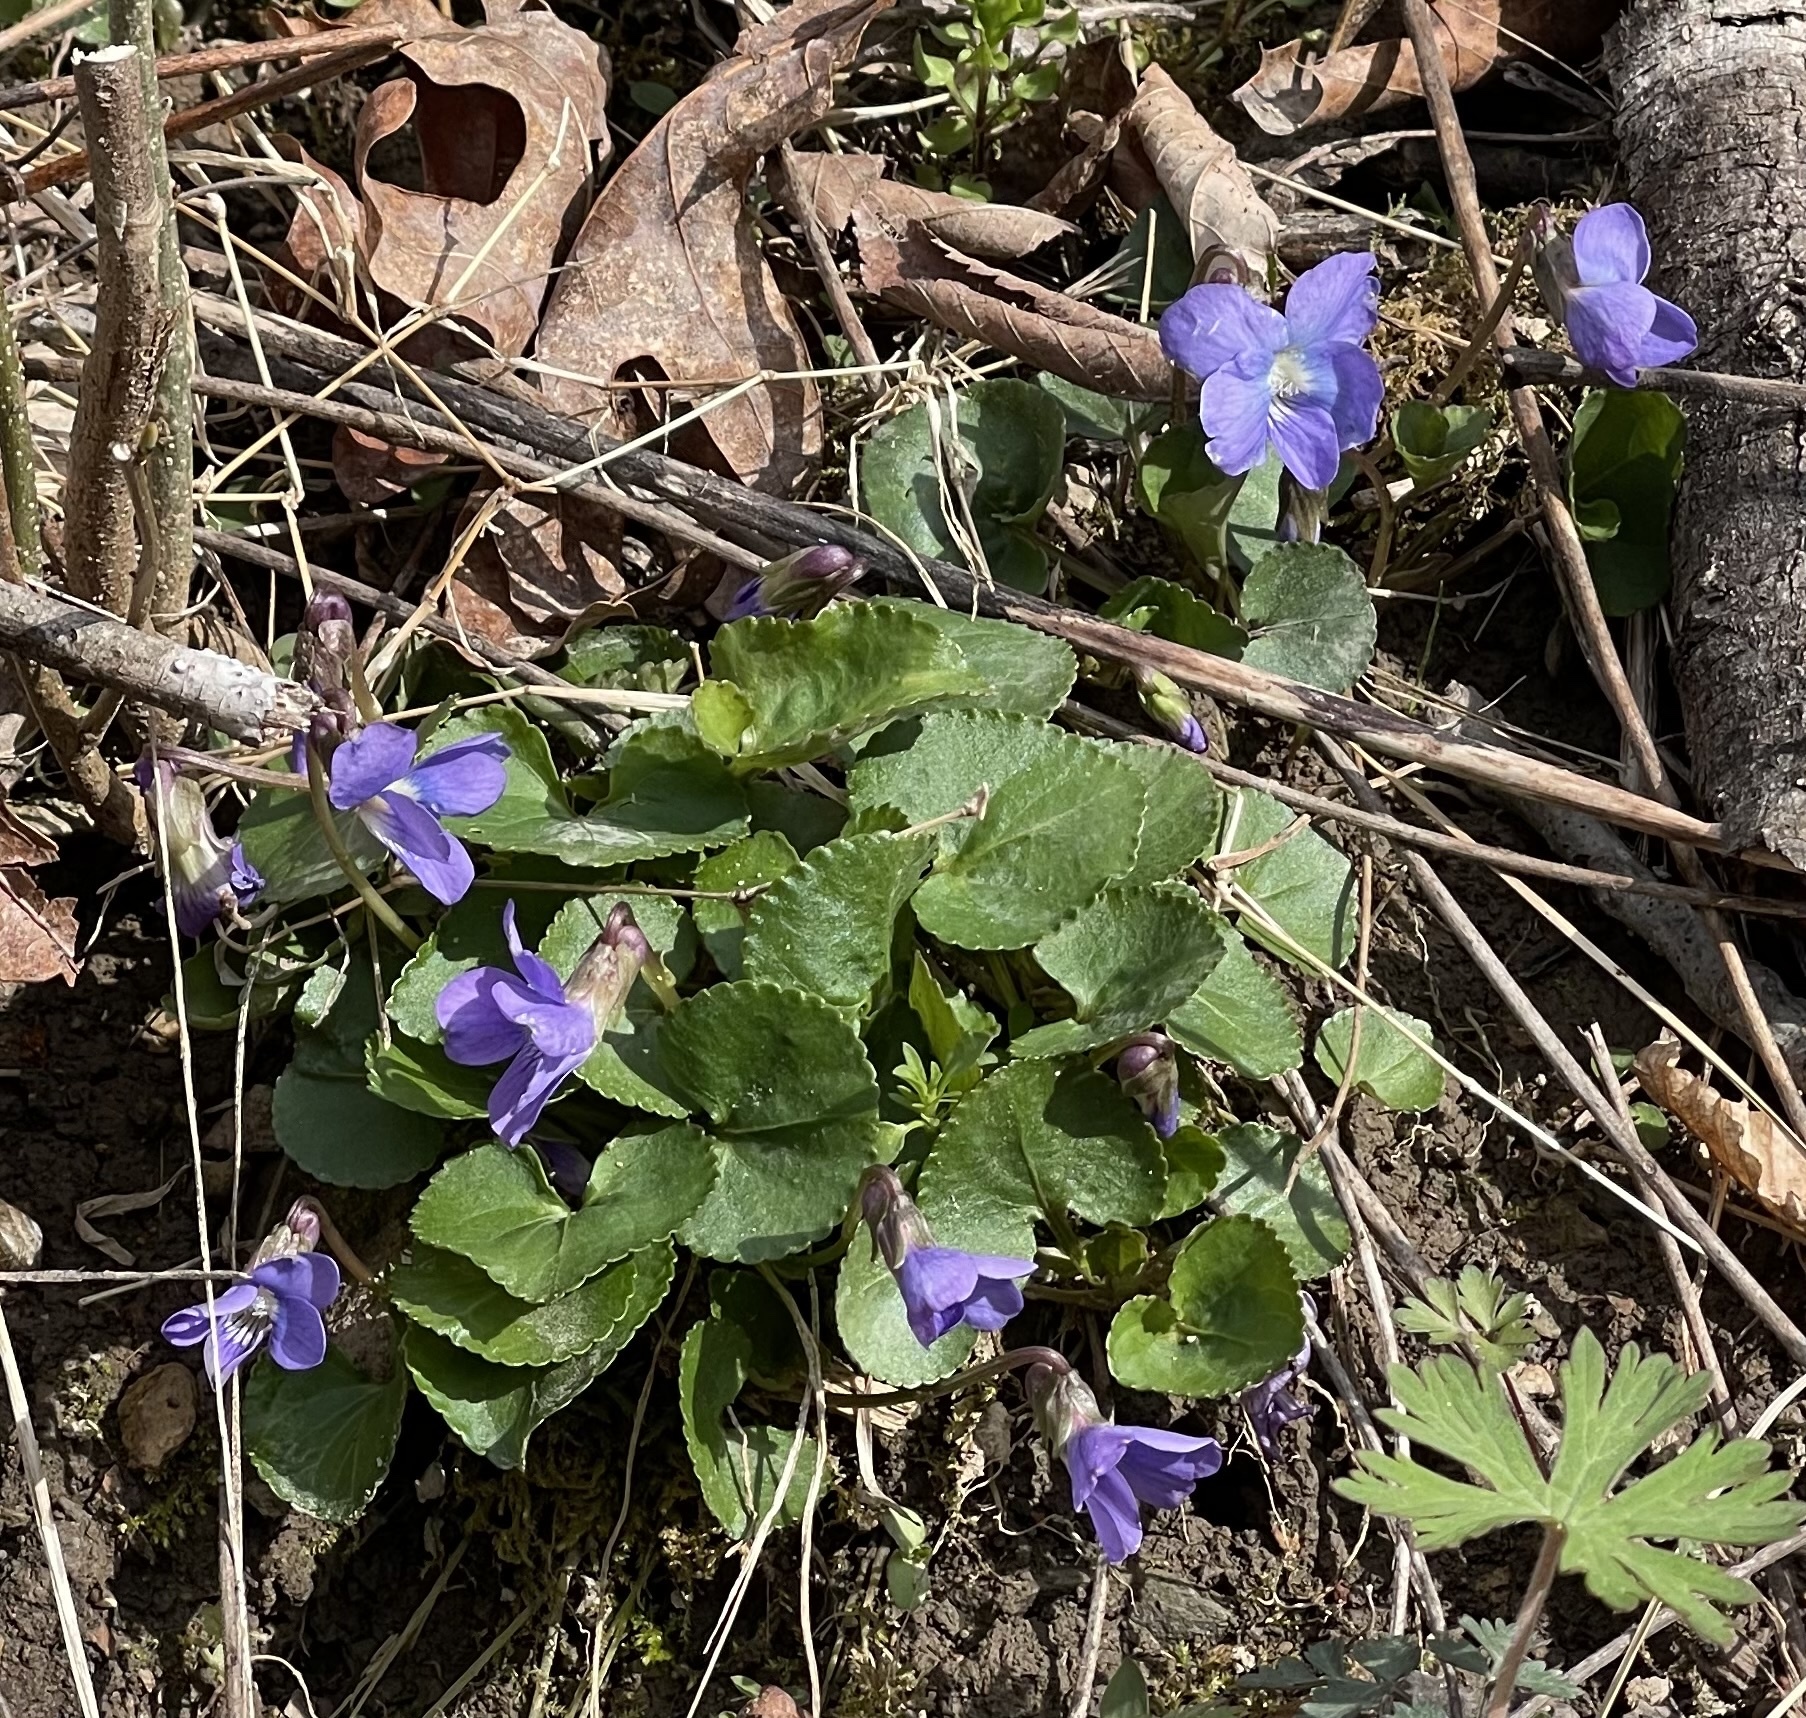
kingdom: Plantae
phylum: Tracheophyta
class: Magnoliopsida
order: Malpighiales
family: Violaceae
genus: Viola
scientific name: Viola sororia
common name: Dooryard violet
